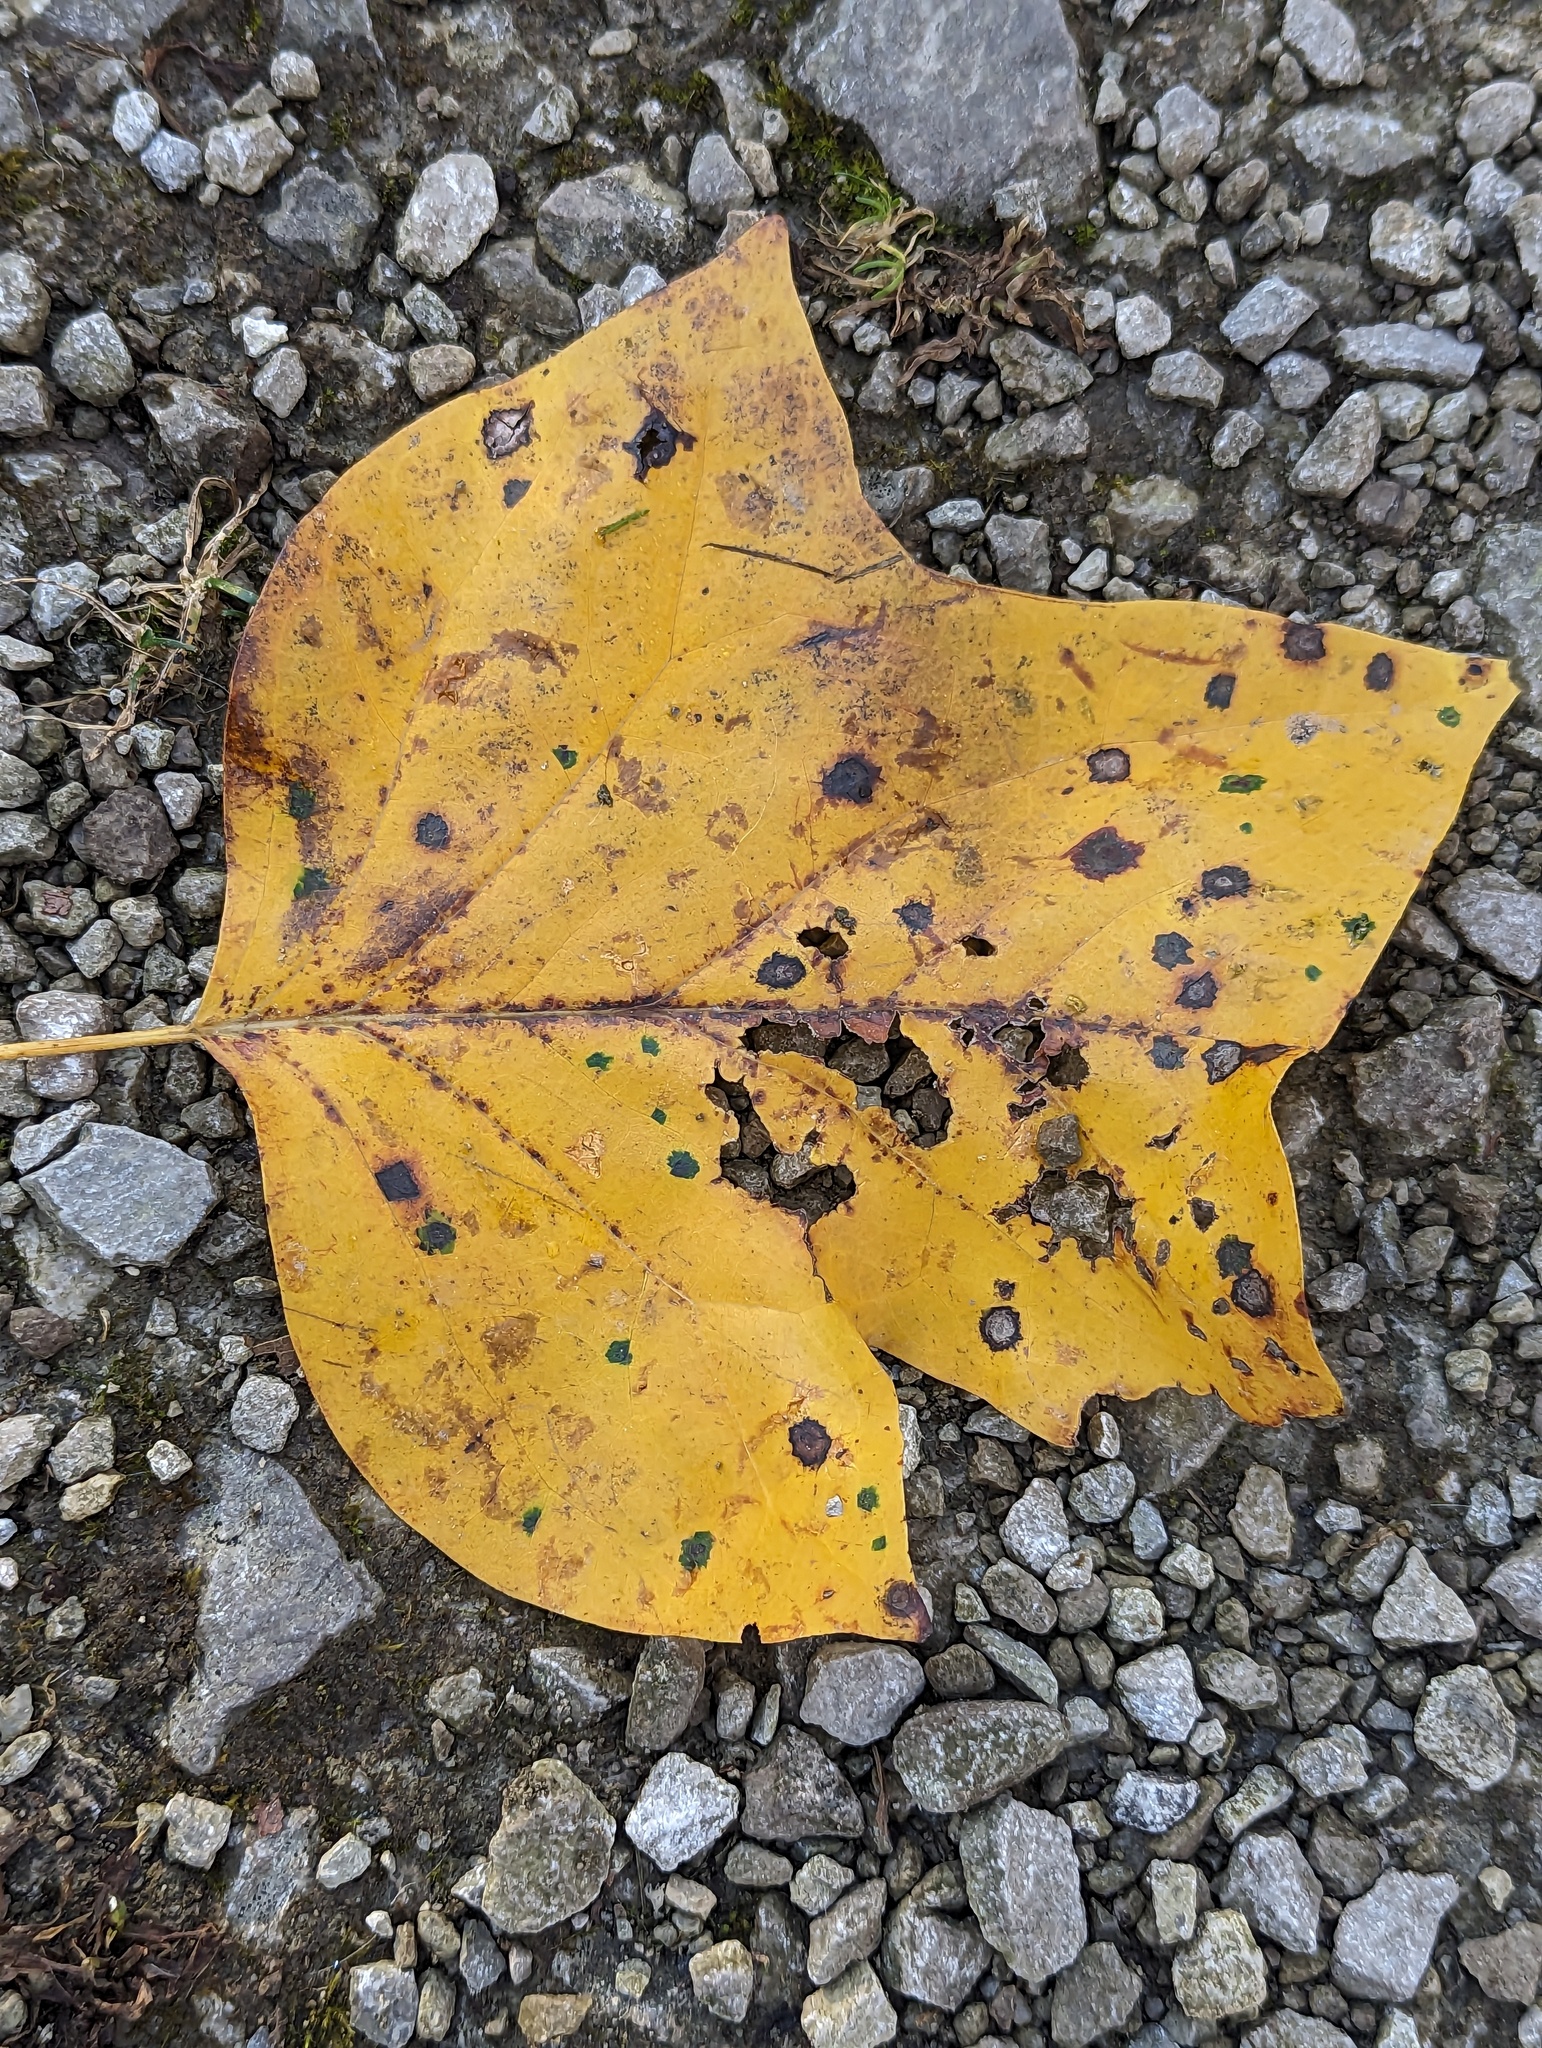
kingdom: Plantae
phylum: Tracheophyta
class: Magnoliopsida
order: Magnoliales
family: Magnoliaceae
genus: Liriodendron
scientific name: Liriodendron tulipifera
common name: Tulip tree
